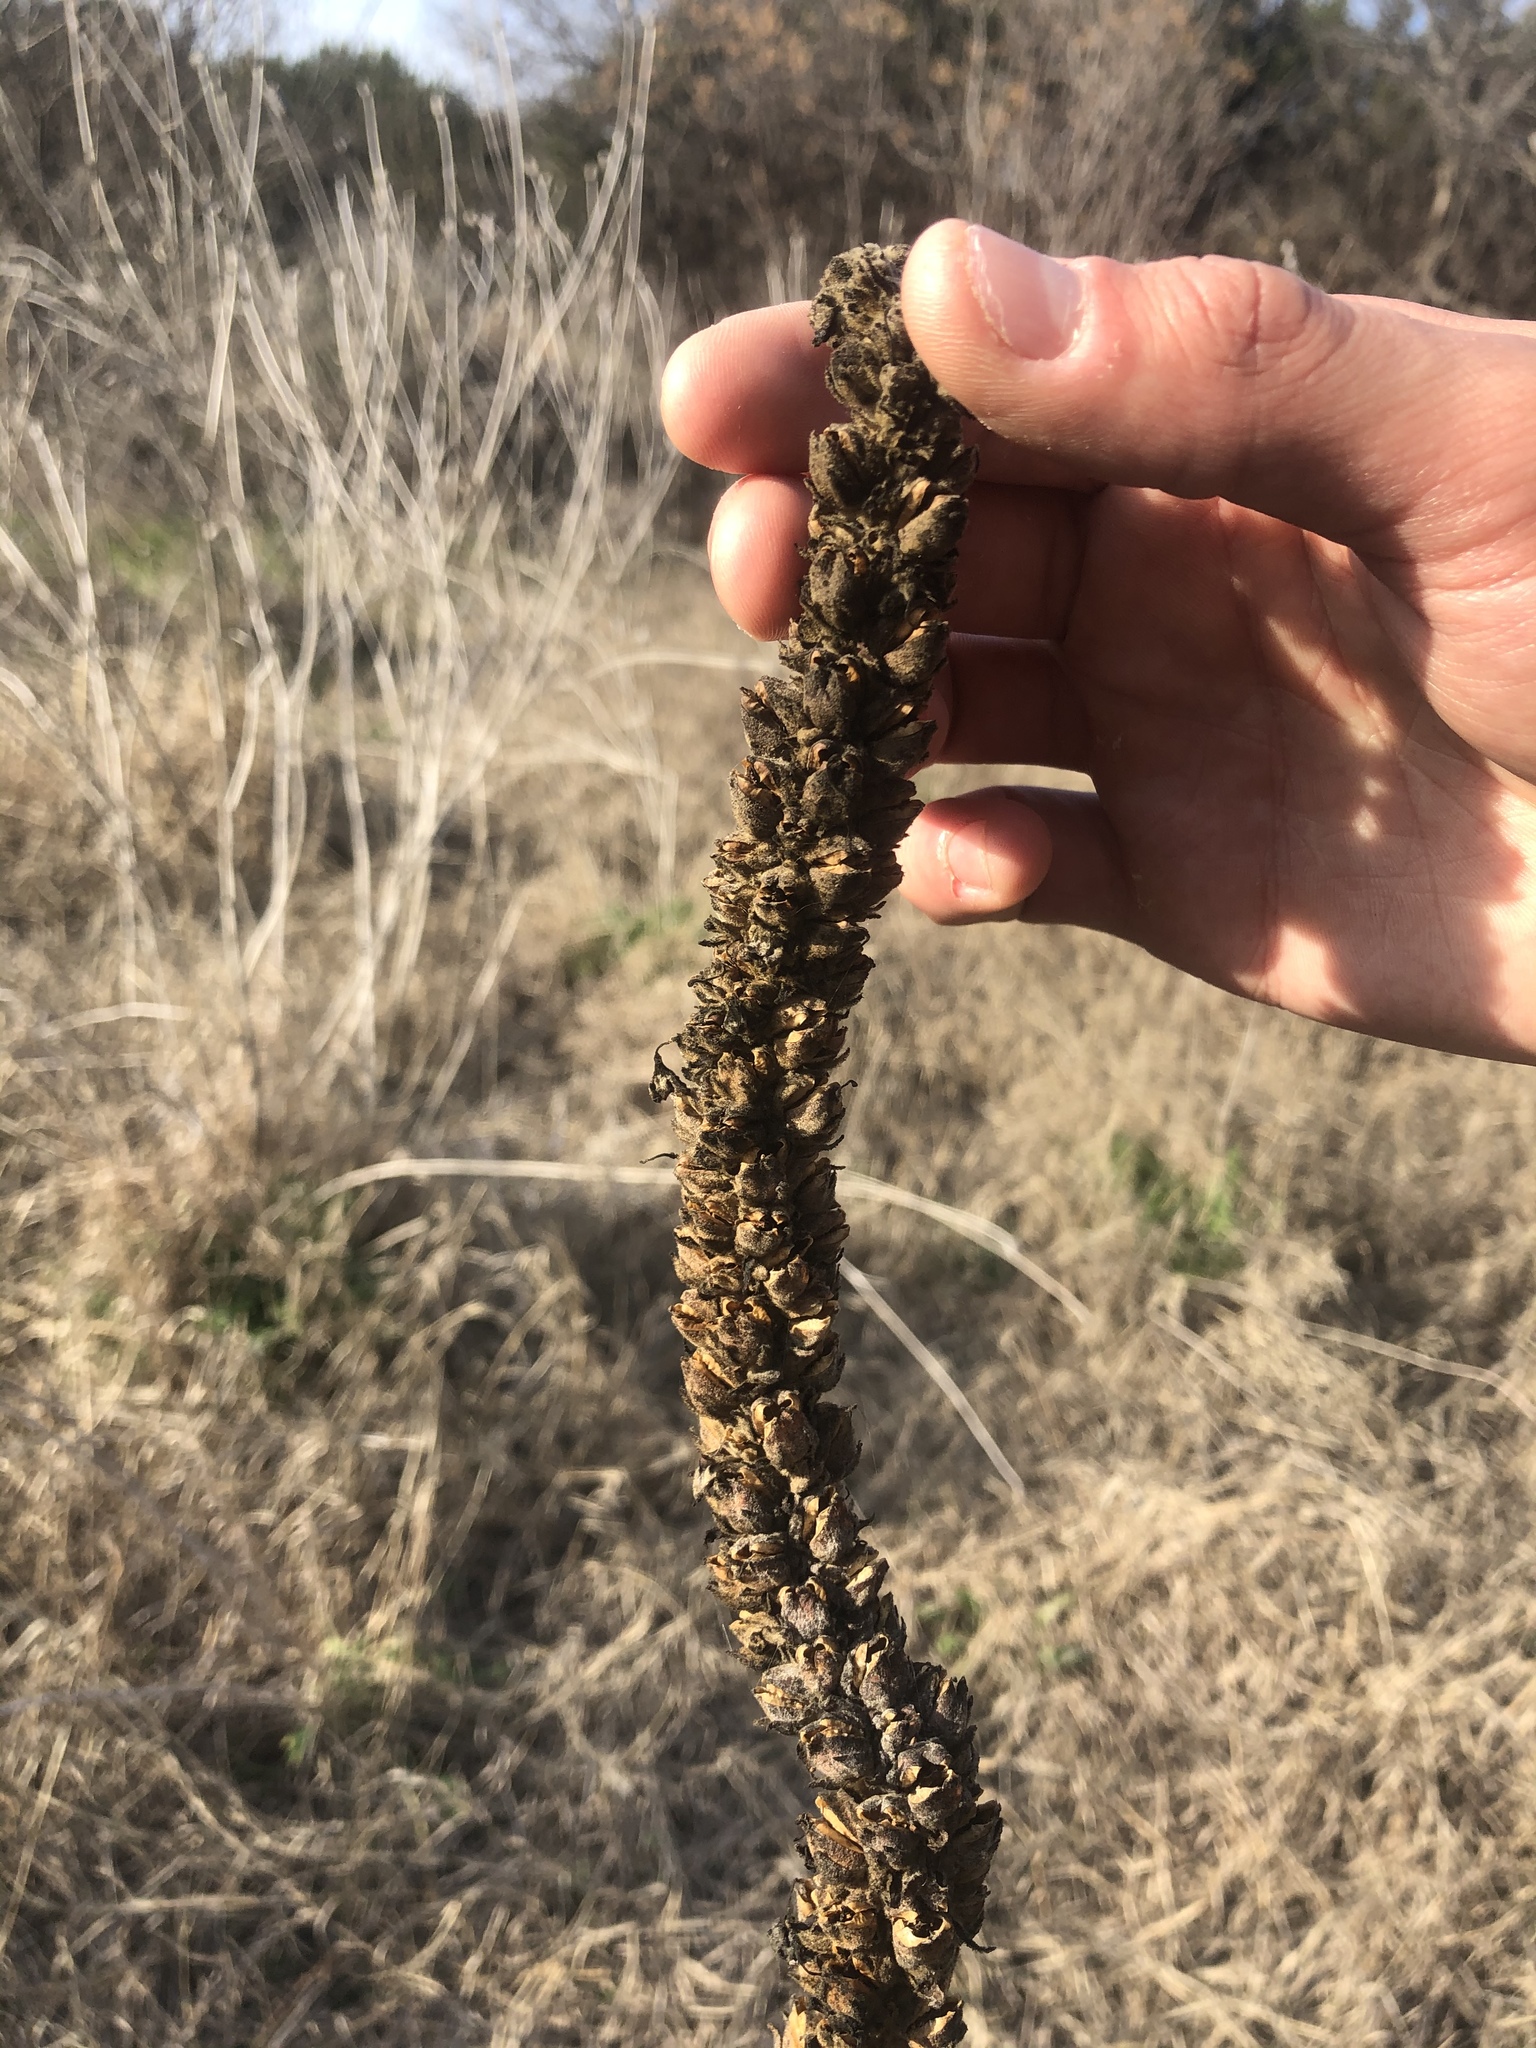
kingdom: Plantae
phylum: Tracheophyta
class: Magnoliopsida
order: Lamiales
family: Scrophulariaceae
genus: Verbascum
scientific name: Verbascum thapsus
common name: Common mullein
